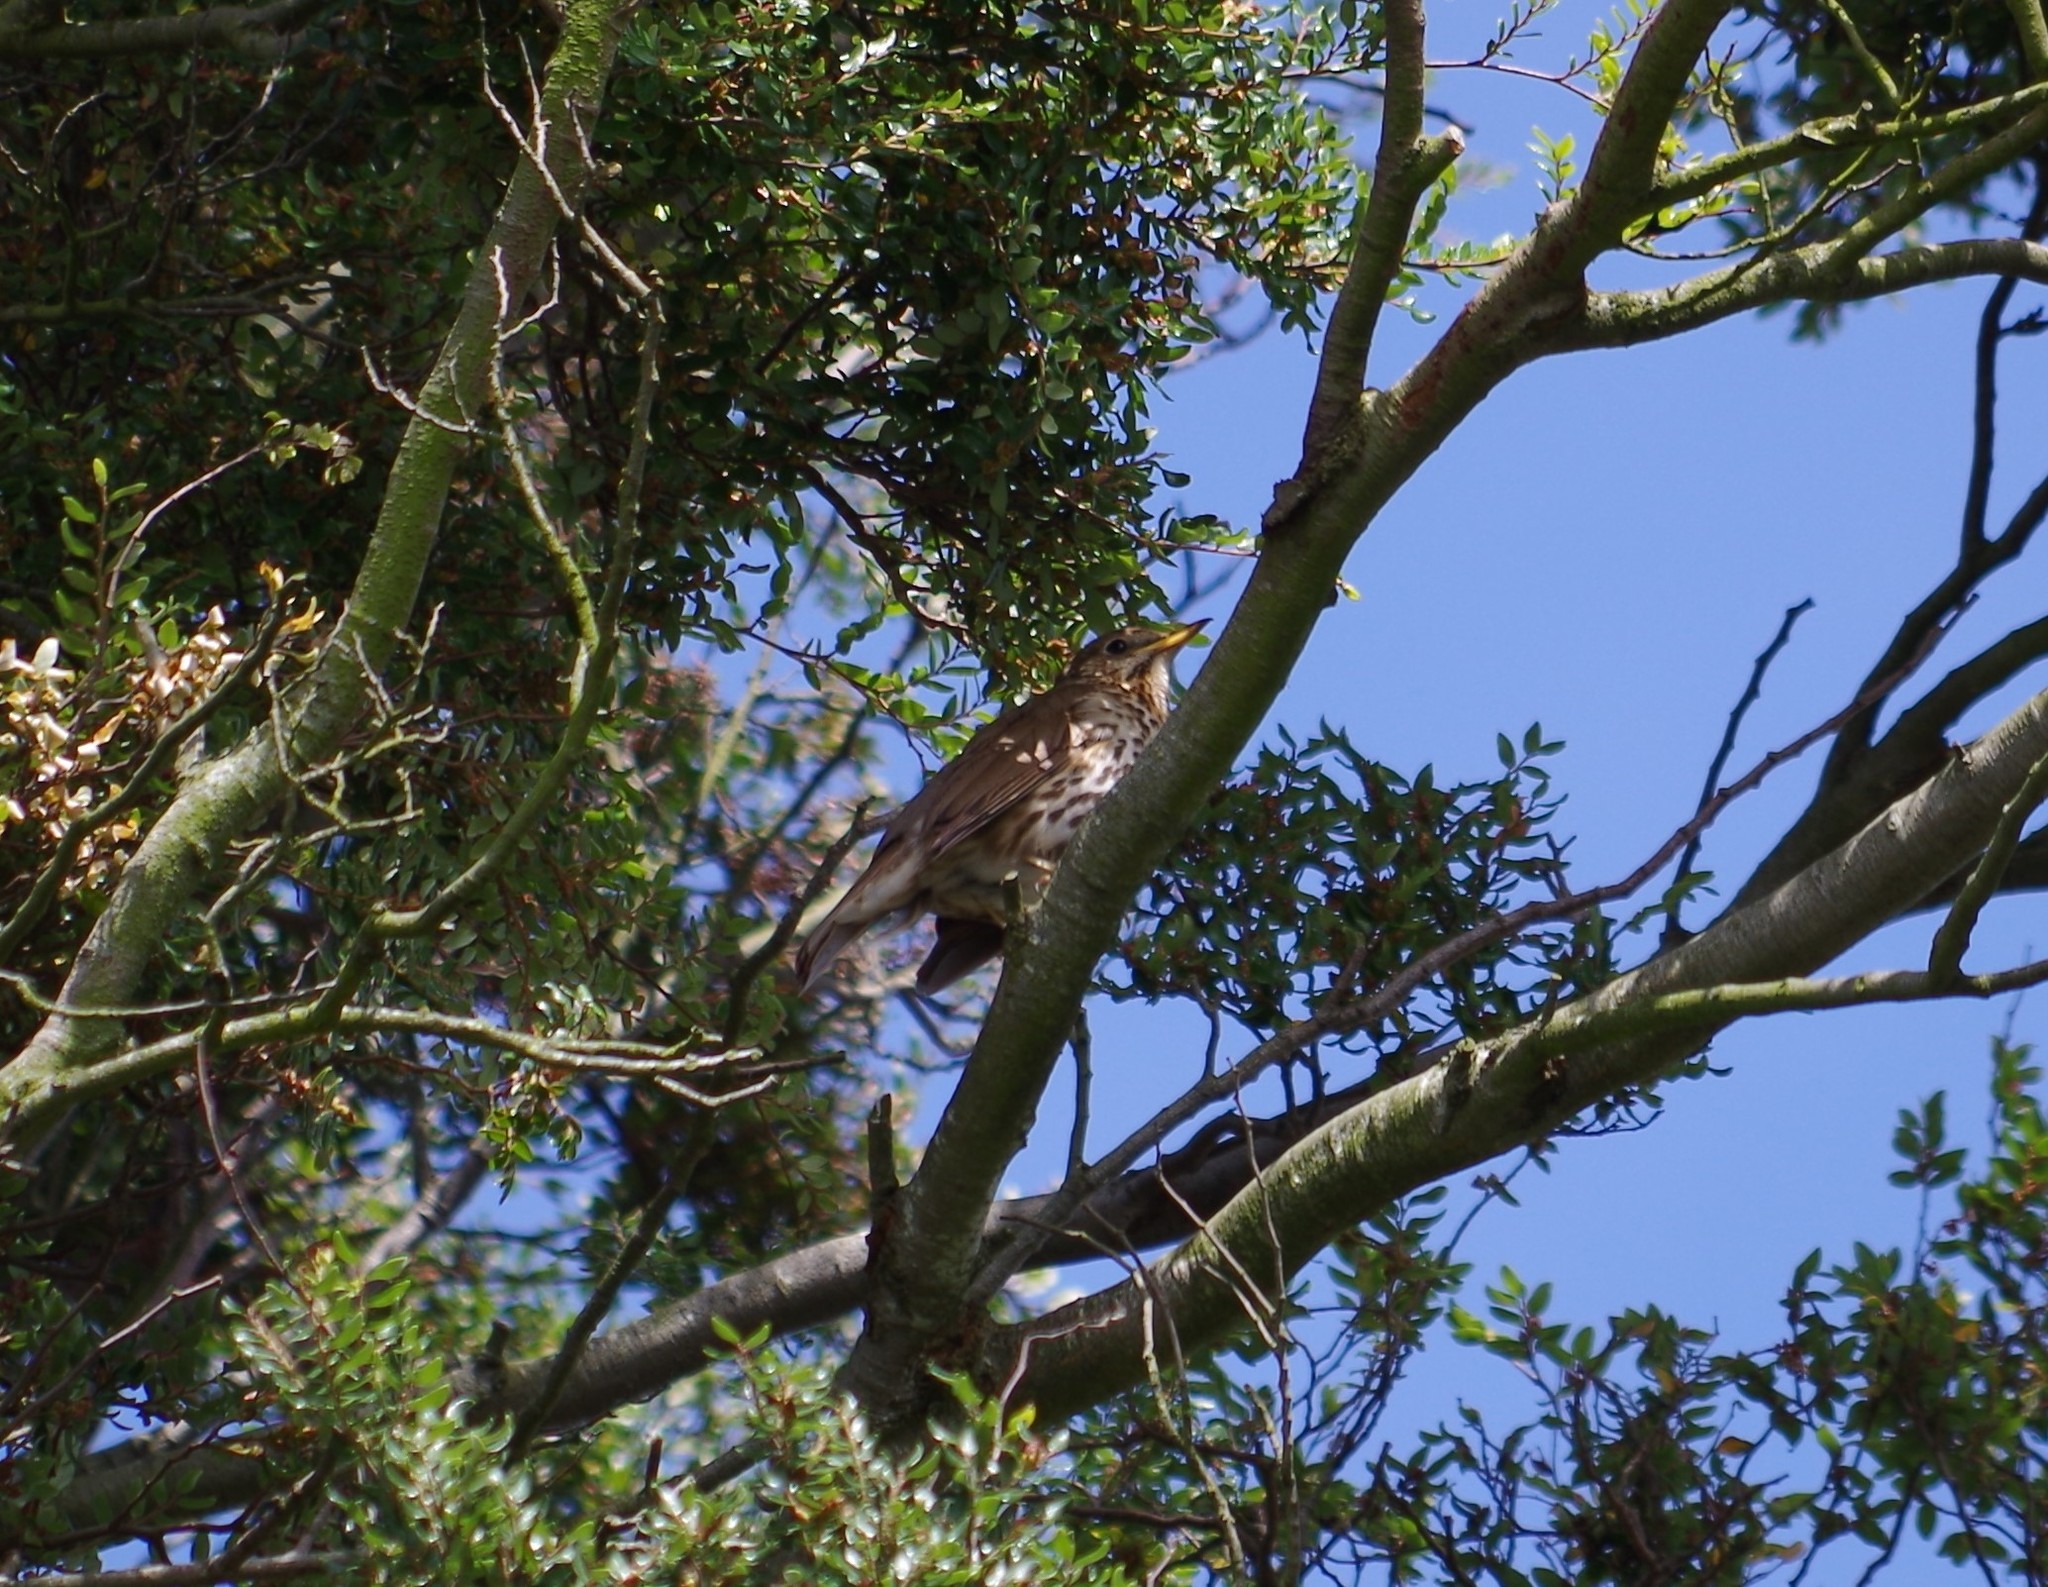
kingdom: Animalia
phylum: Chordata
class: Aves
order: Passeriformes
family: Turdidae
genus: Turdus
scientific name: Turdus philomelos
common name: Song thrush
